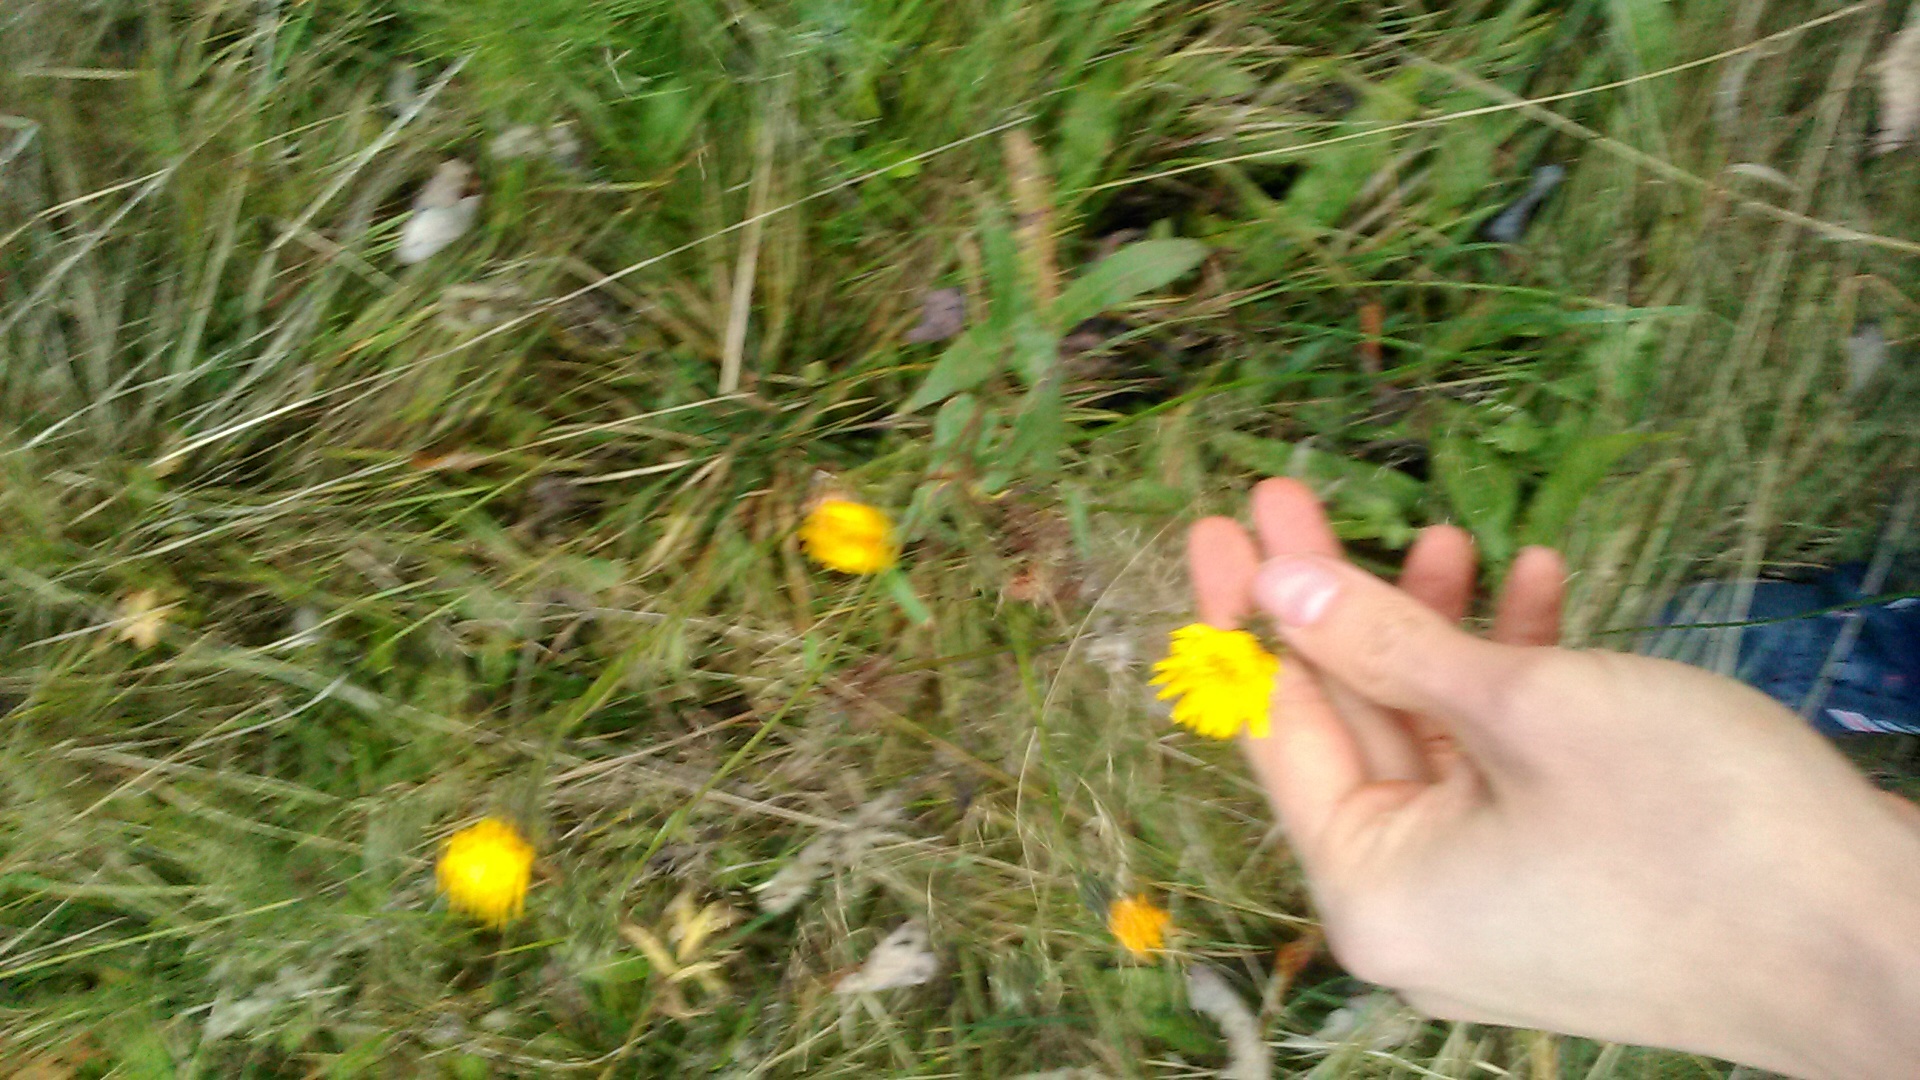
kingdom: Plantae
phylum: Tracheophyta
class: Magnoliopsida
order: Asterales
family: Asteraceae
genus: Picris
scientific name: Picris hieracioides
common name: Hawkweed oxtongue
